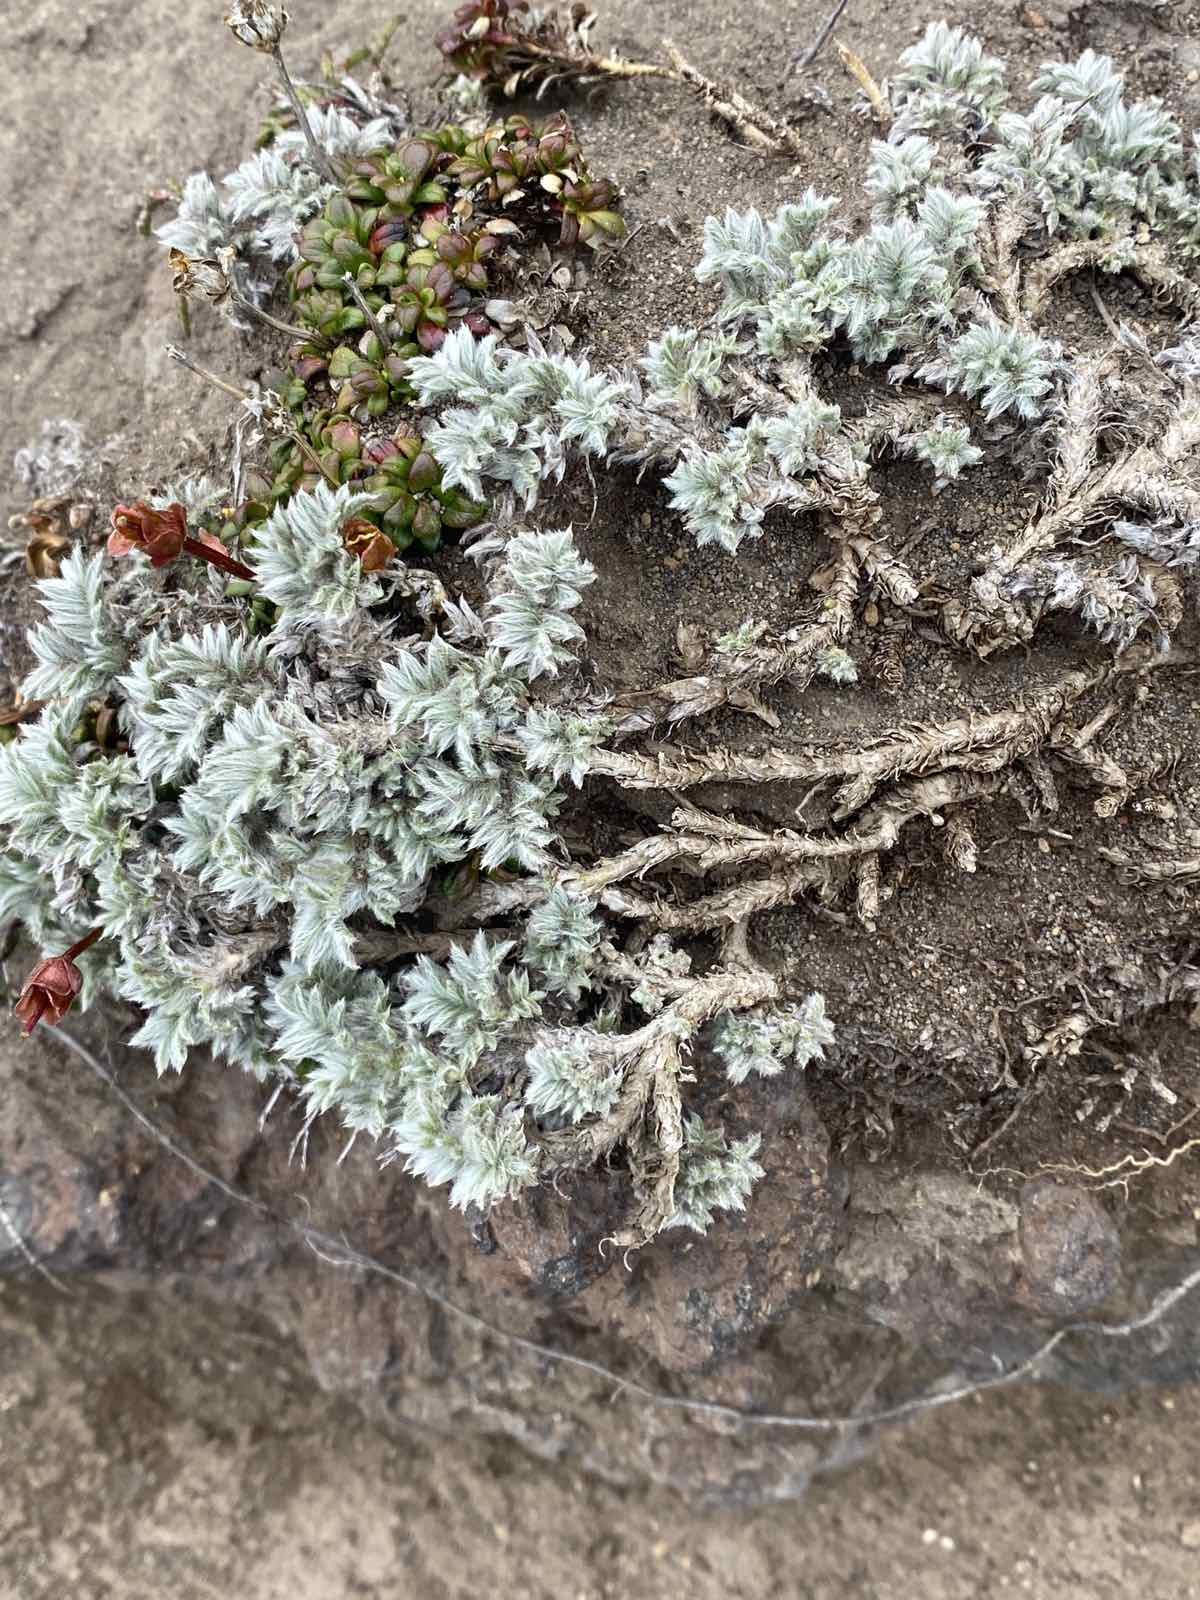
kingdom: Plantae
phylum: Tracheophyta
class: Magnoliopsida
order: Fabales
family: Fabaceae
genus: Oxytropis
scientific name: Oxytropis kamtschatica
